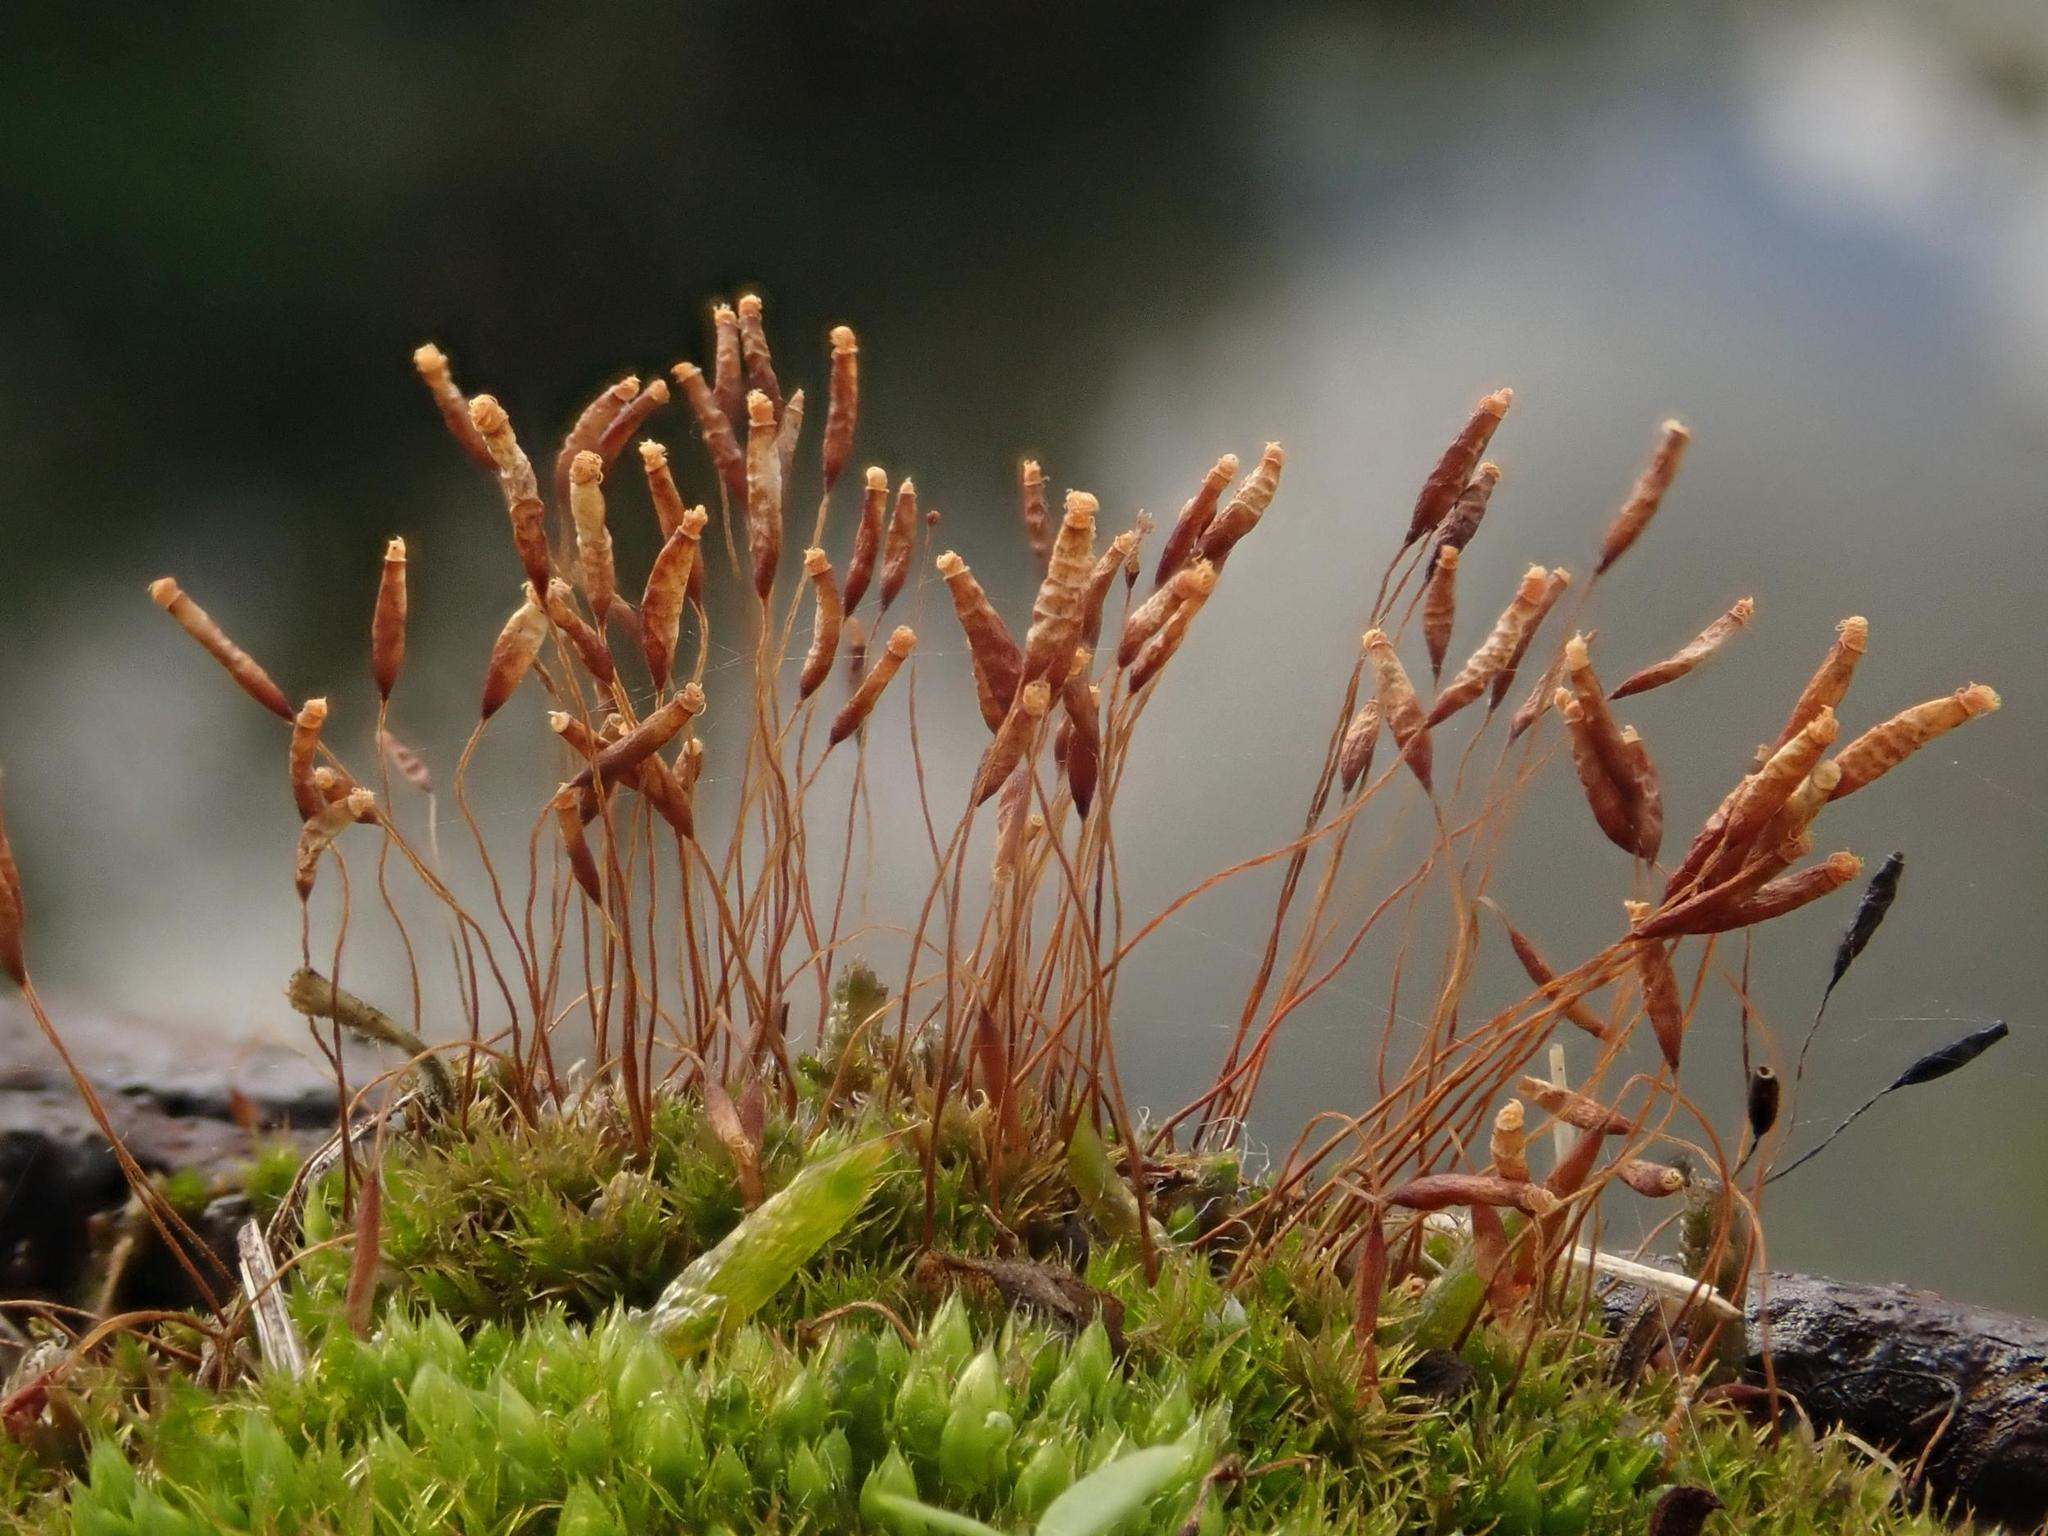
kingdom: Plantae
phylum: Bryophyta
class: Bryopsida
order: Pottiales
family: Pottiaceae
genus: Tortula
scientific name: Tortula muralis
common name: Wall screw-moss
